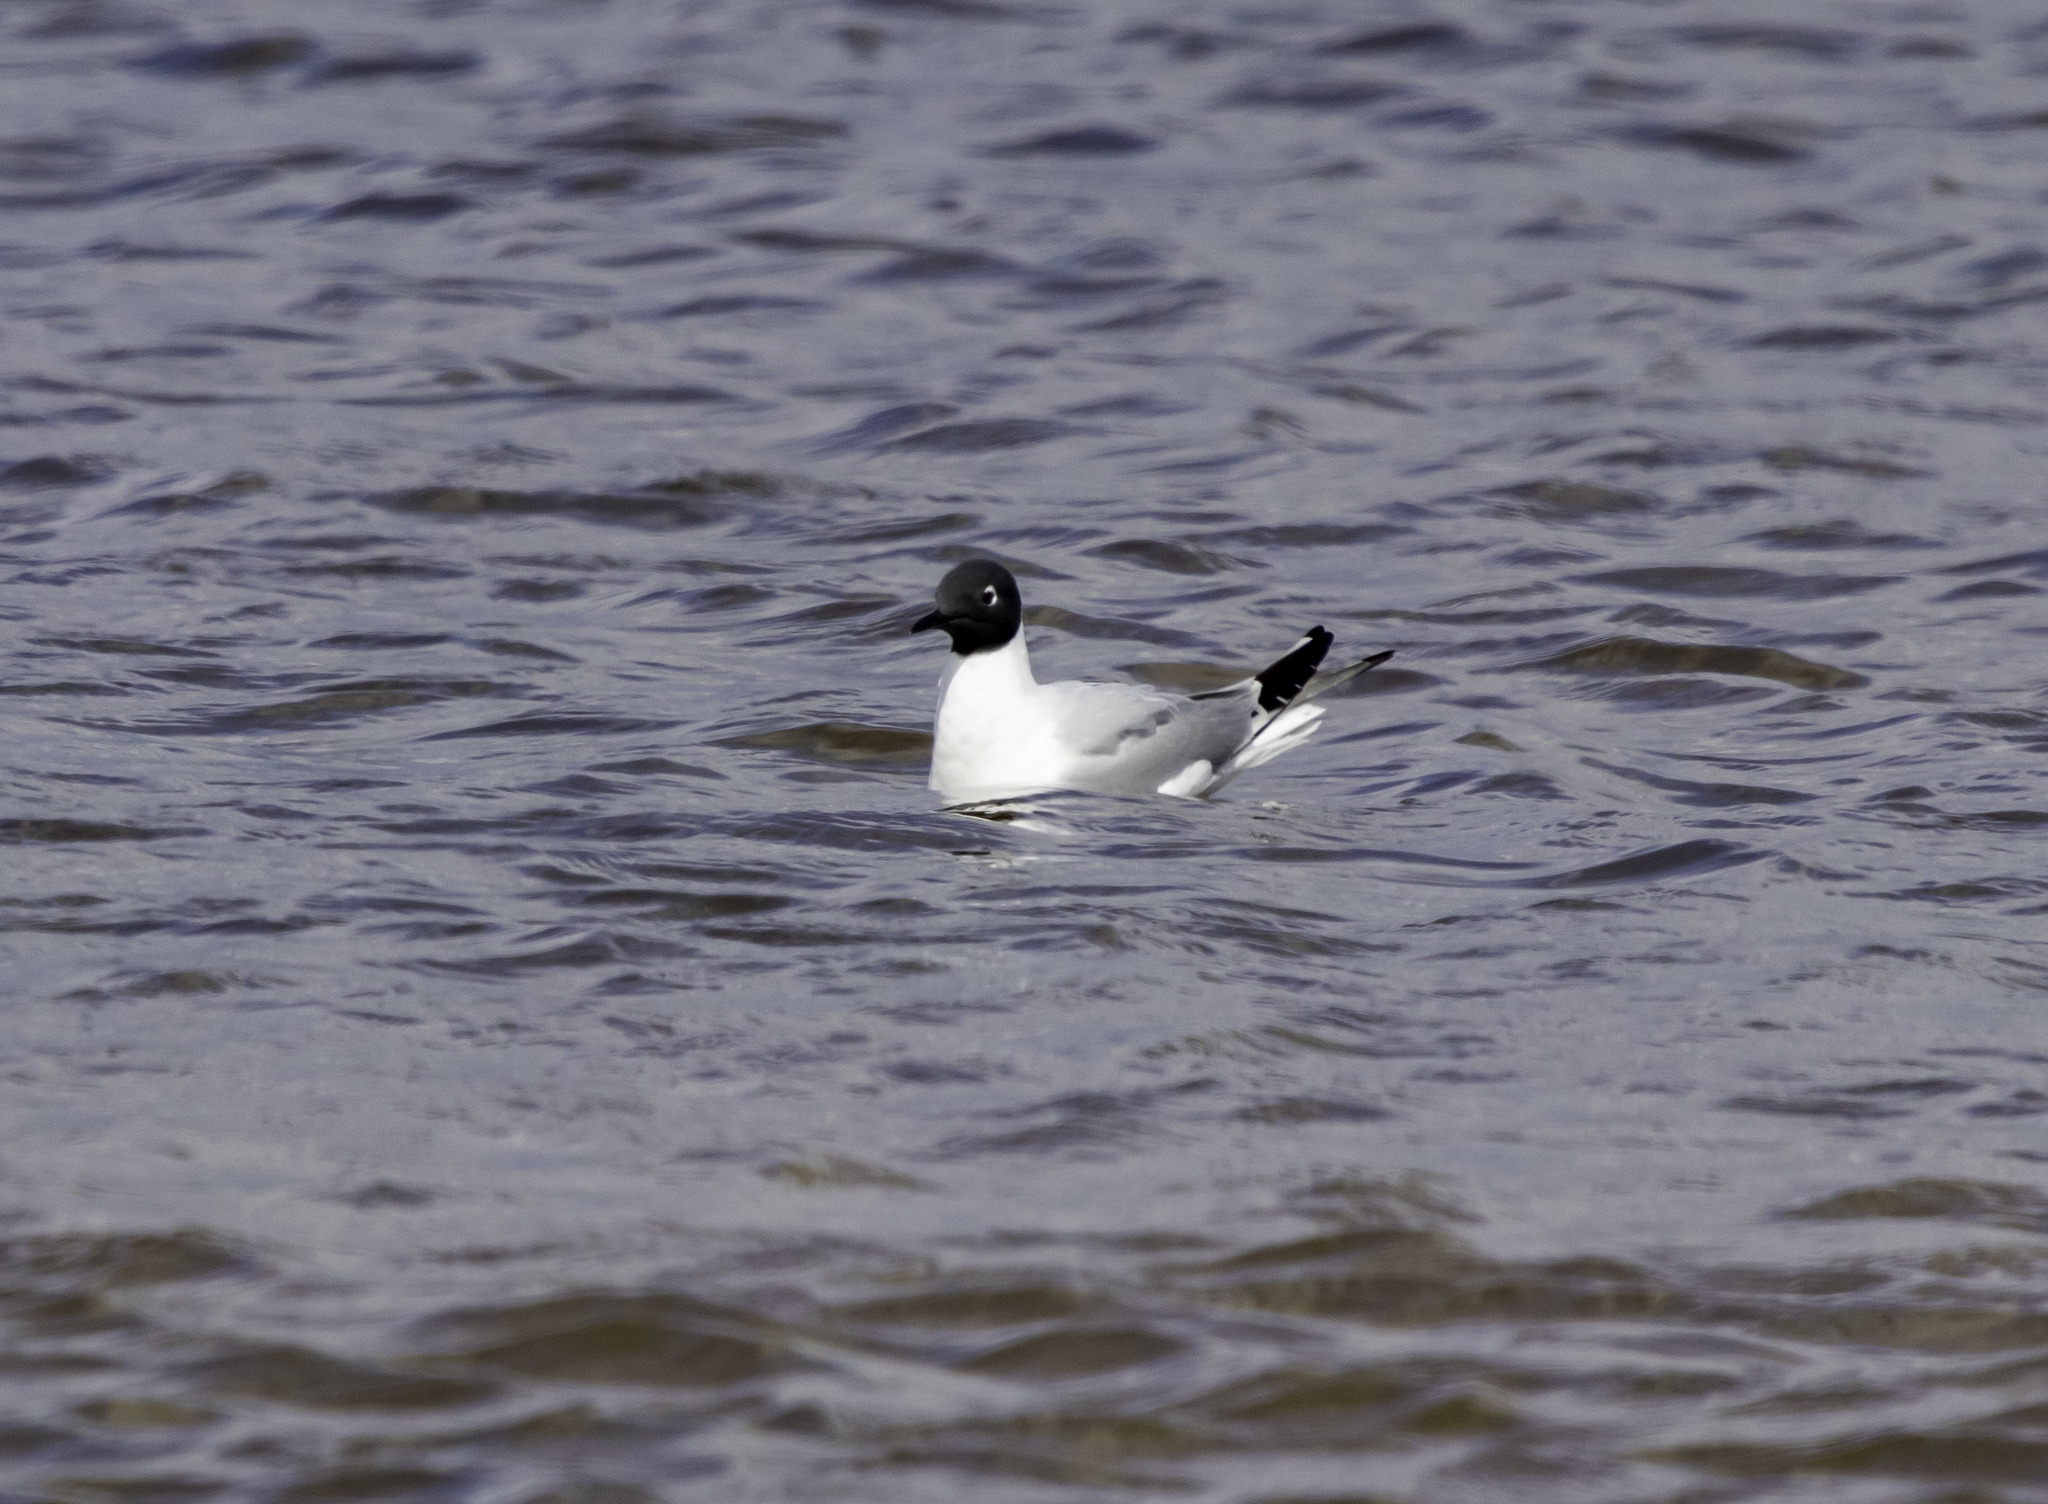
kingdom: Animalia
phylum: Chordata
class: Aves
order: Charadriiformes
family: Laridae
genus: Chroicocephalus
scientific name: Chroicocephalus philadelphia
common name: Bonaparte's gull
